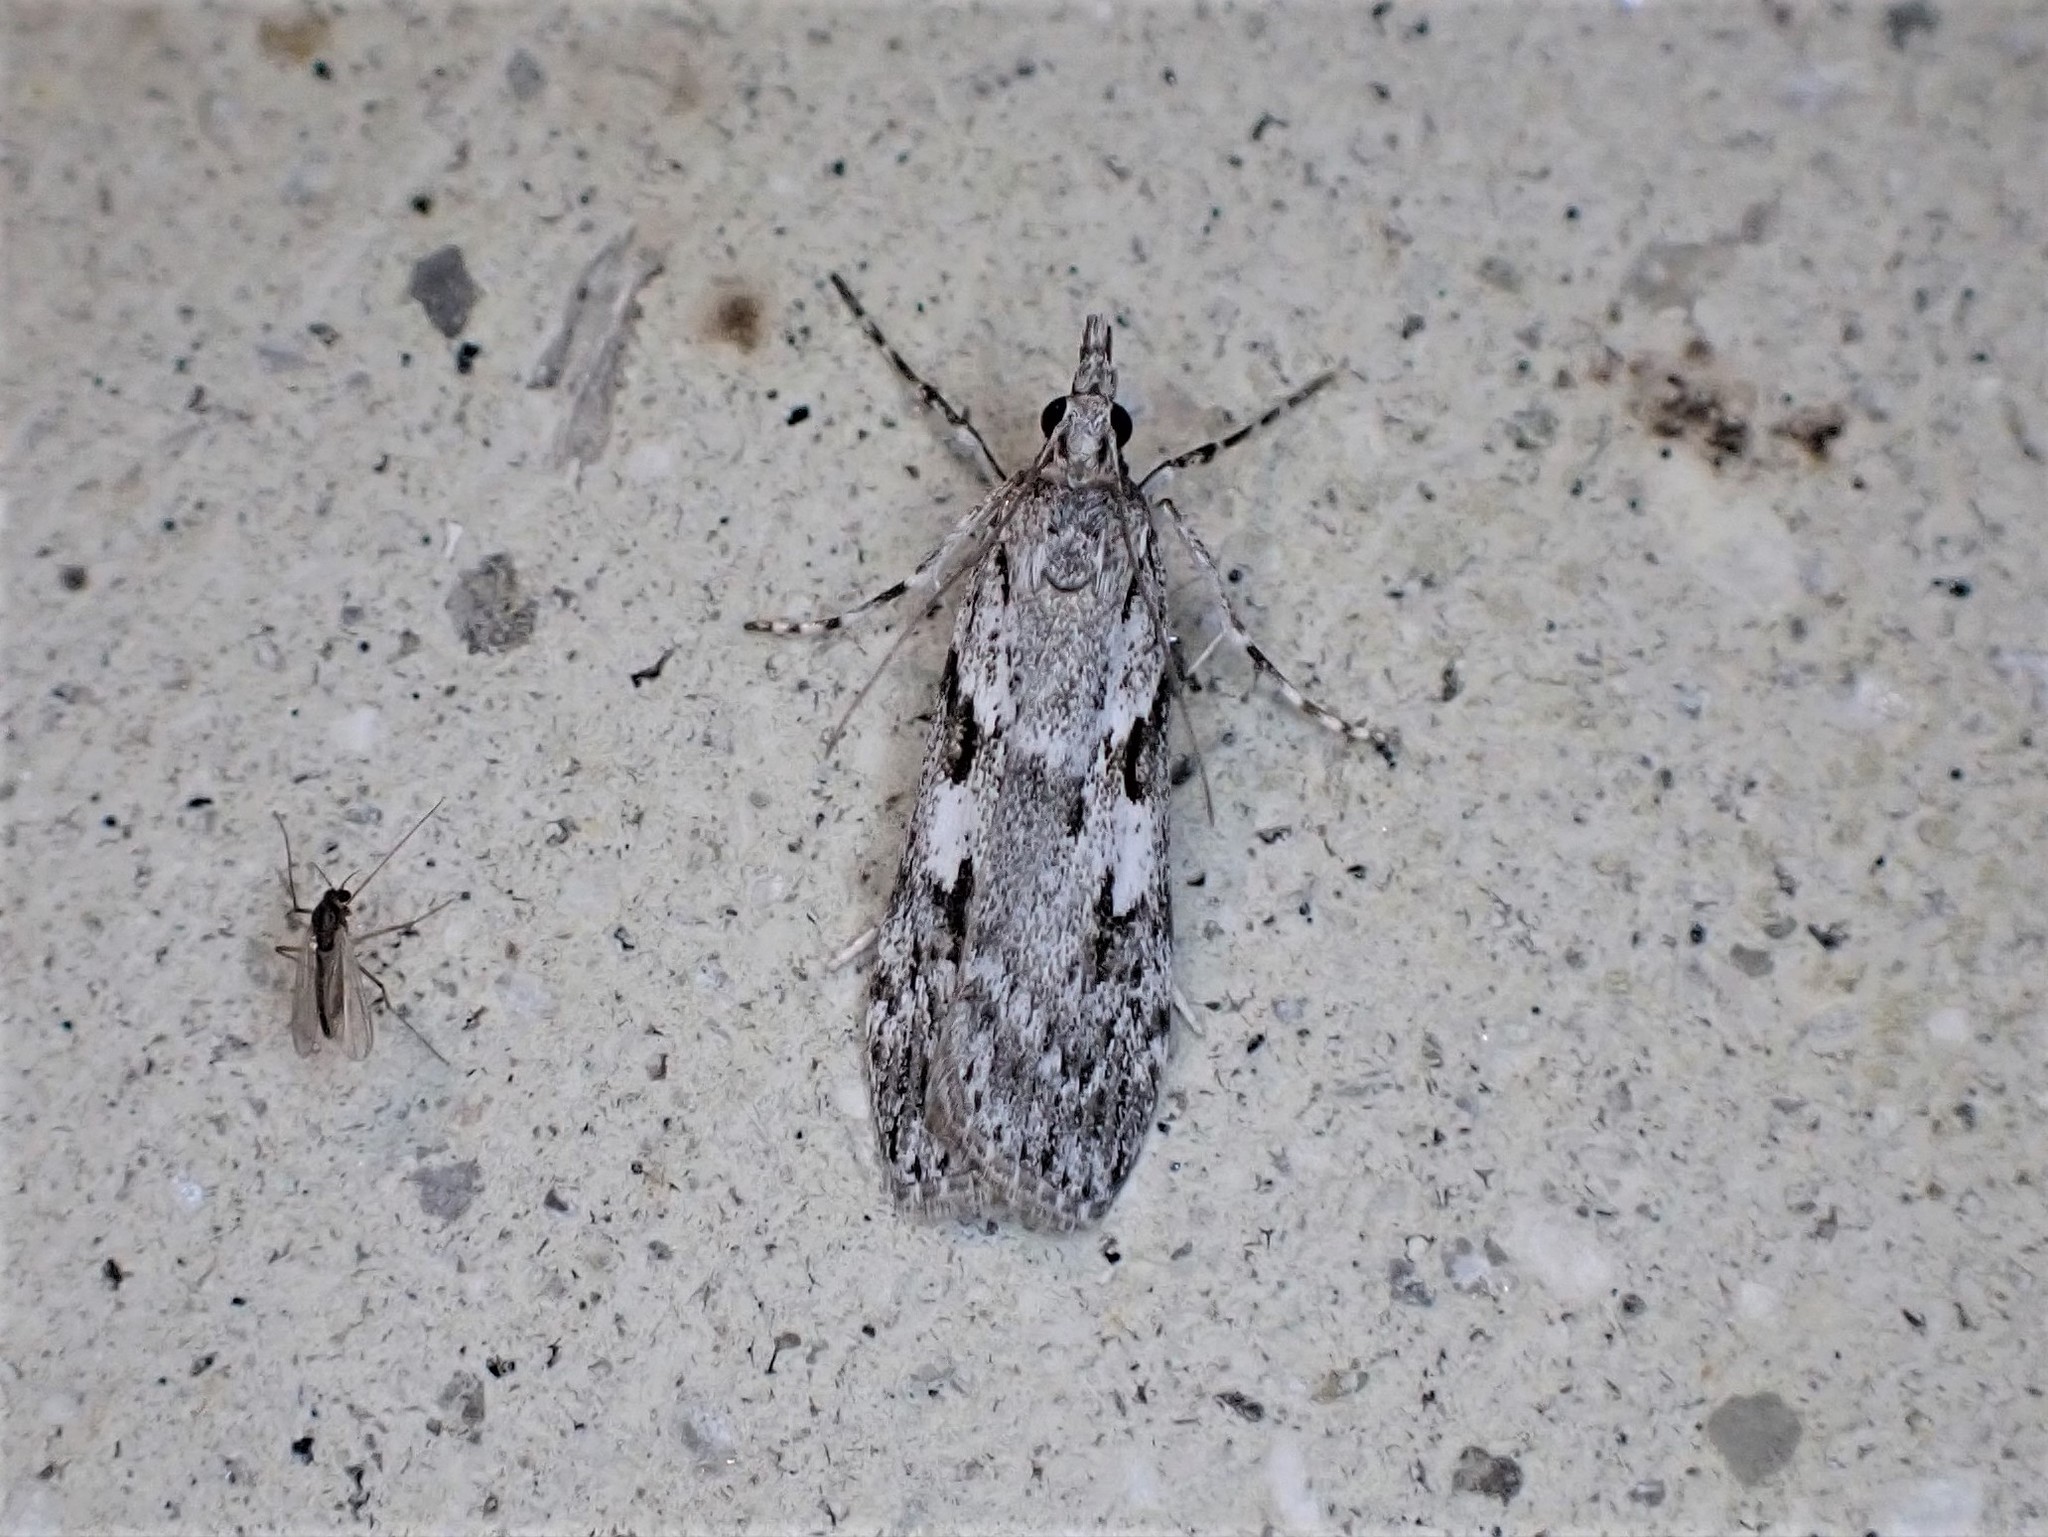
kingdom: Animalia
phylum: Arthropoda
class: Insecta
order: Lepidoptera
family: Crambidae
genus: Scoparia
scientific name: Scoparia halopis
